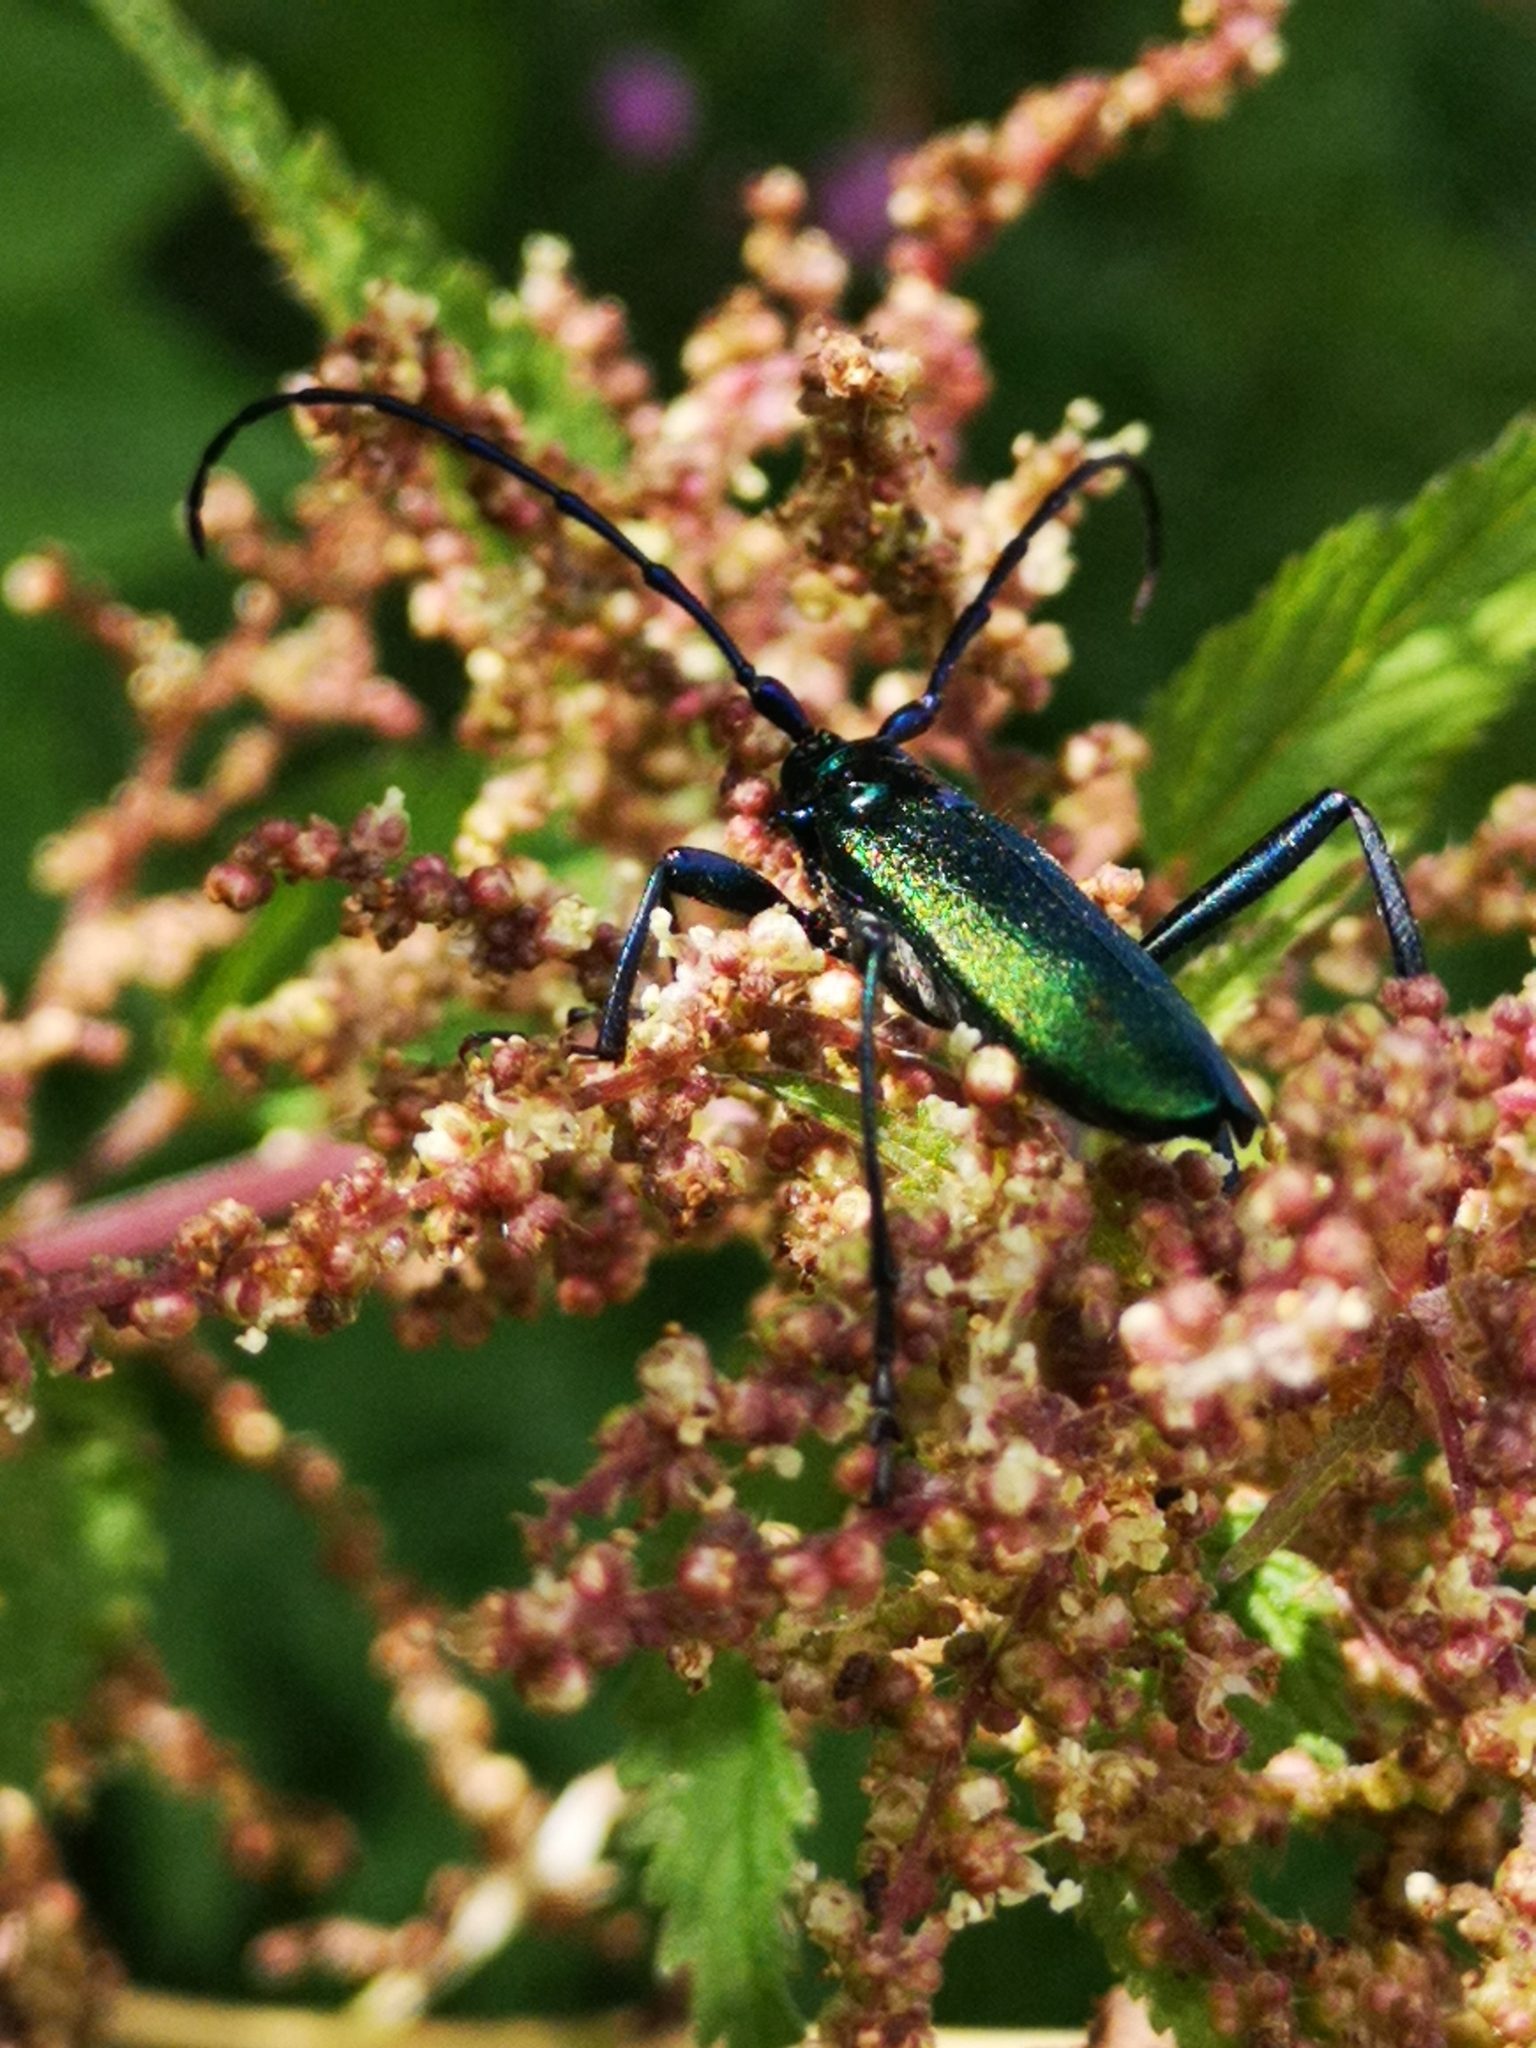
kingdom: Animalia
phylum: Arthropoda
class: Insecta
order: Coleoptera
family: Cerambycidae
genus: Aromia
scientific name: Aromia moschata
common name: Musk beetle
